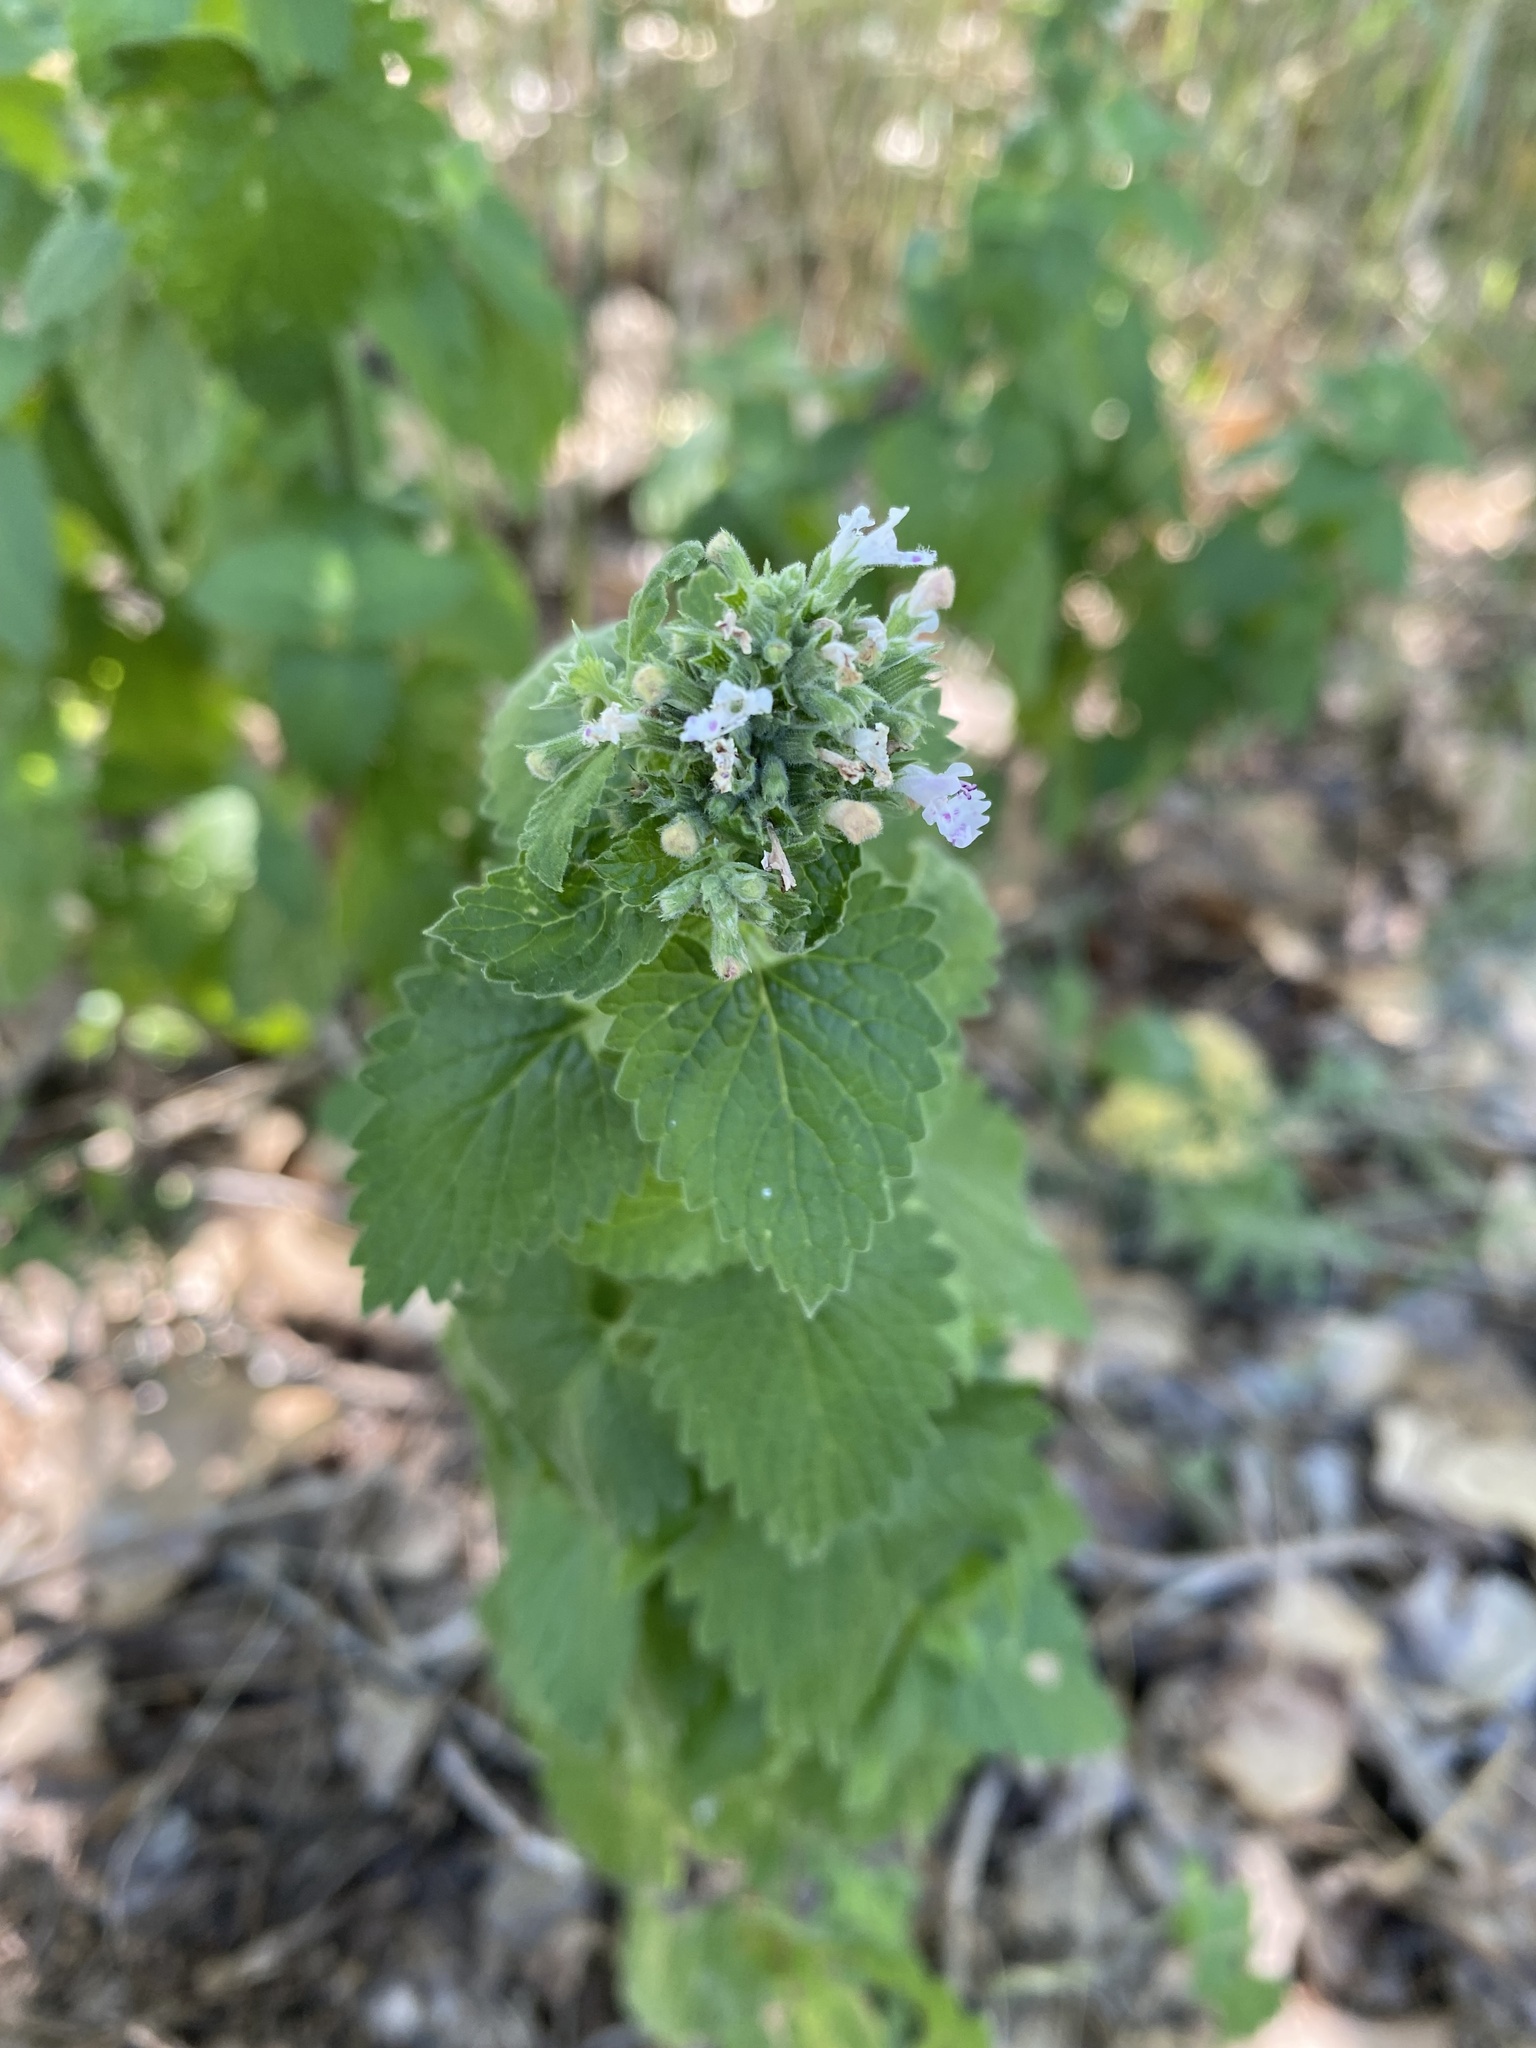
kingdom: Plantae
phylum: Tracheophyta
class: Magnoliopsida
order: Lamiales
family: Lamiaceae
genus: Nepeta
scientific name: Nepeta cataria
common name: Catnip
